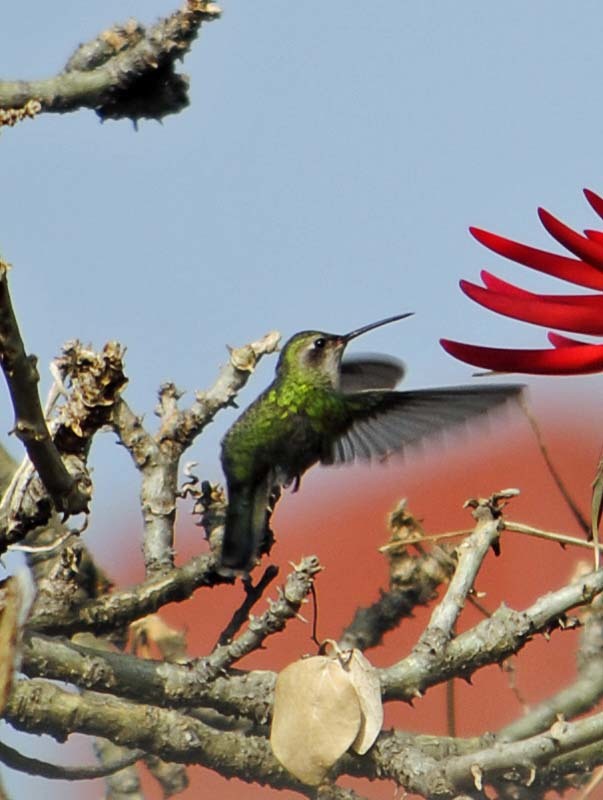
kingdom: Animalia
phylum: Chordata
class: Aves
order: Apodiformes
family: Trochilidae
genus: Cynanthus
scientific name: Cynanthus latirostris
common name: Broad-billed hummingbird
